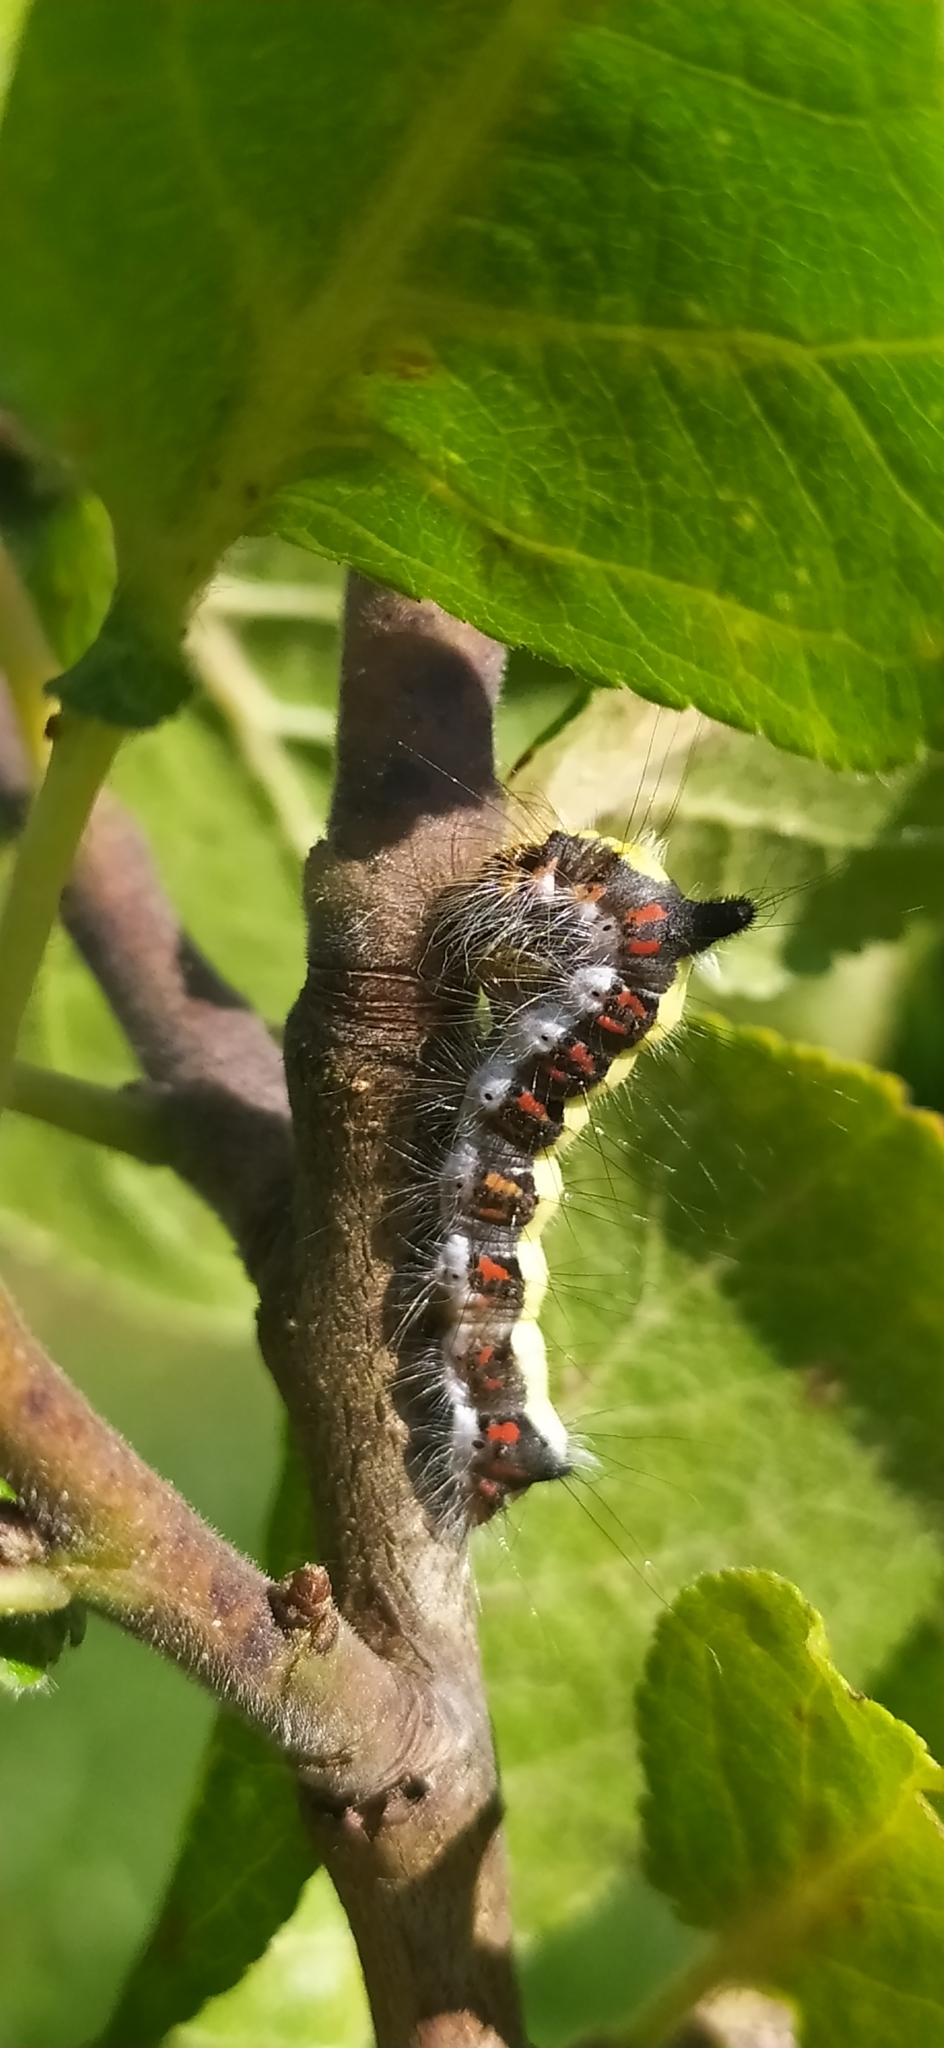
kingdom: Animalia
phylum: Arthropoda
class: Insecta
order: Lepidoptera
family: Noctuidae
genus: Acronicta
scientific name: Acronicta psi
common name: Grey dagger
